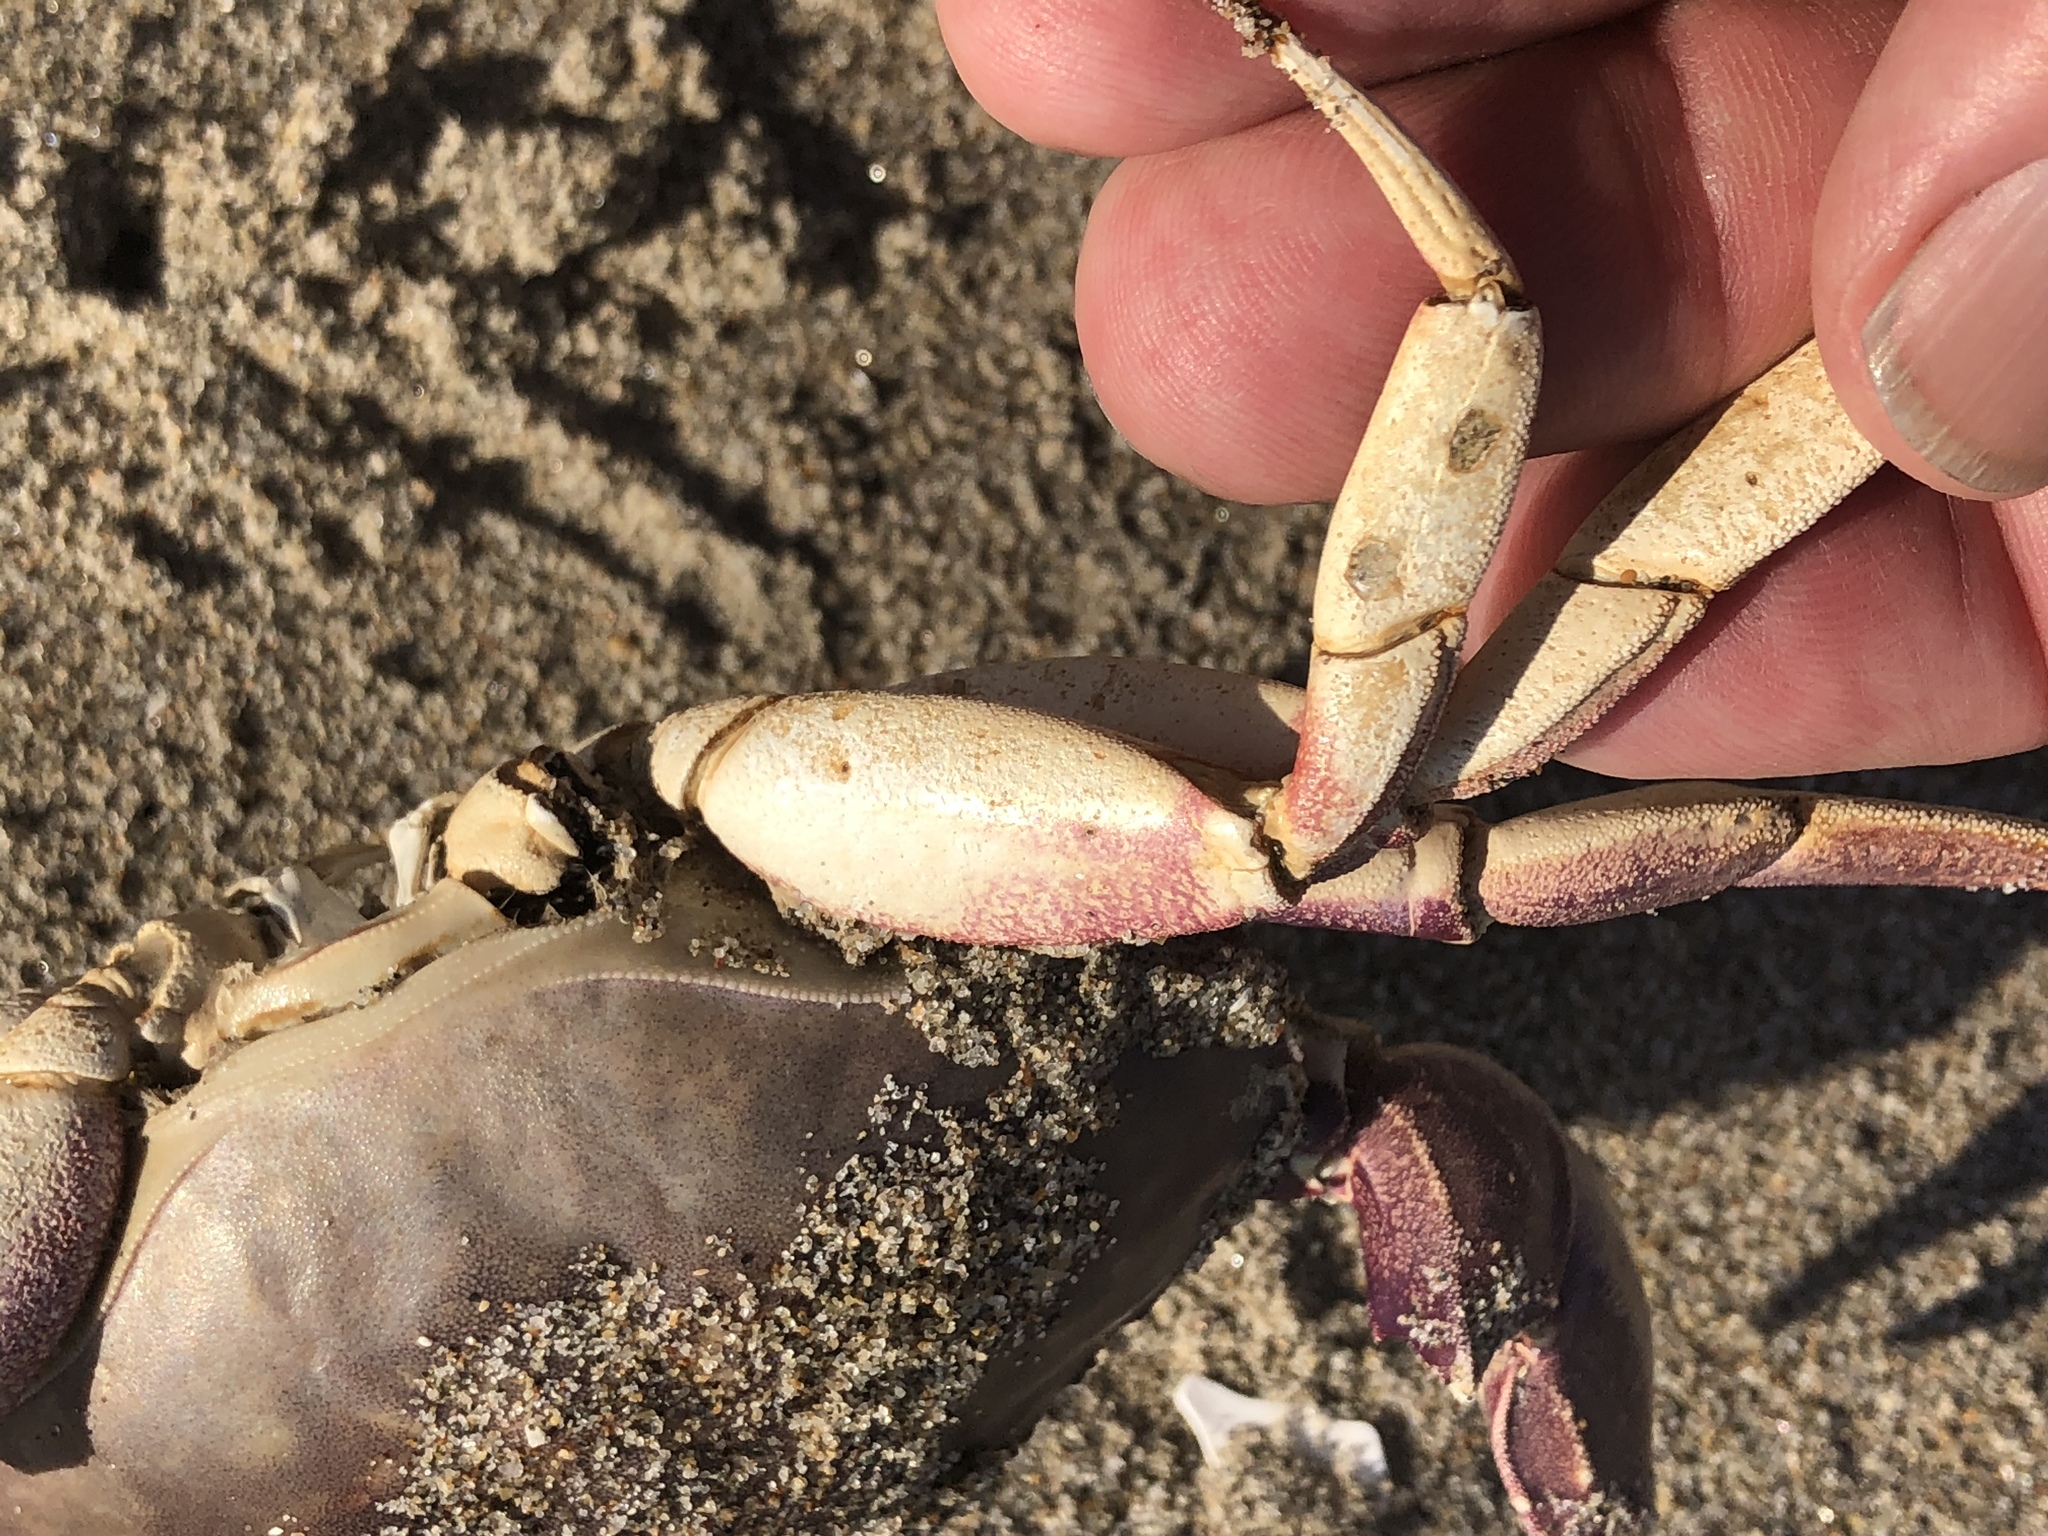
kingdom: Animalia
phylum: Arthropoda
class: Malacostraca
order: Decapoda
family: Cancridae
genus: Metacarcinus
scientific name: Metacarcinus gracilis
